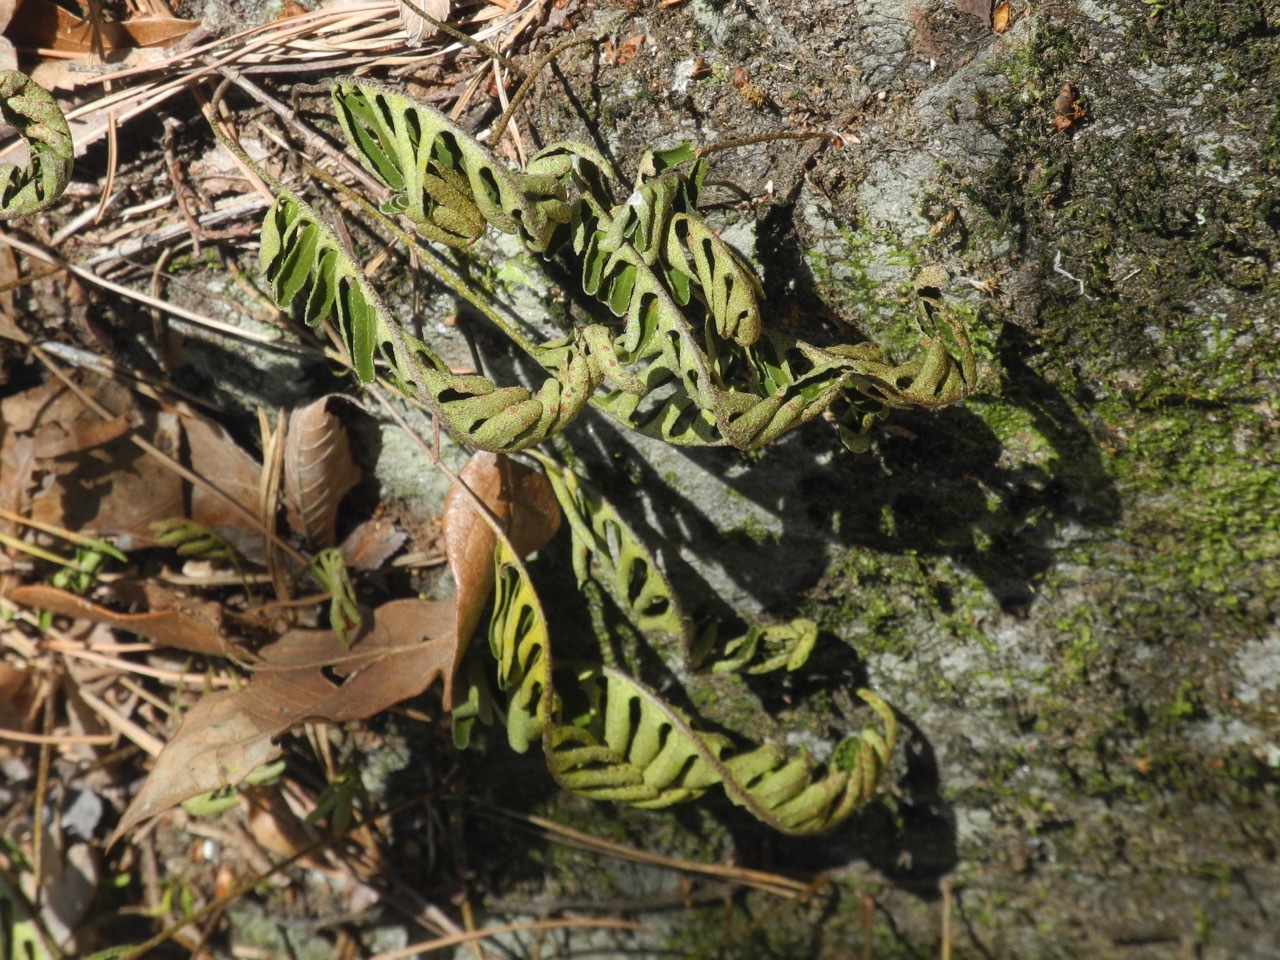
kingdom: Plantae
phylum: Tracheophyta
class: Polypodiopsida
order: Polypodiales
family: Polypodiaceae
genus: Pleopeltis
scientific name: Pleopeltis michauxiana
